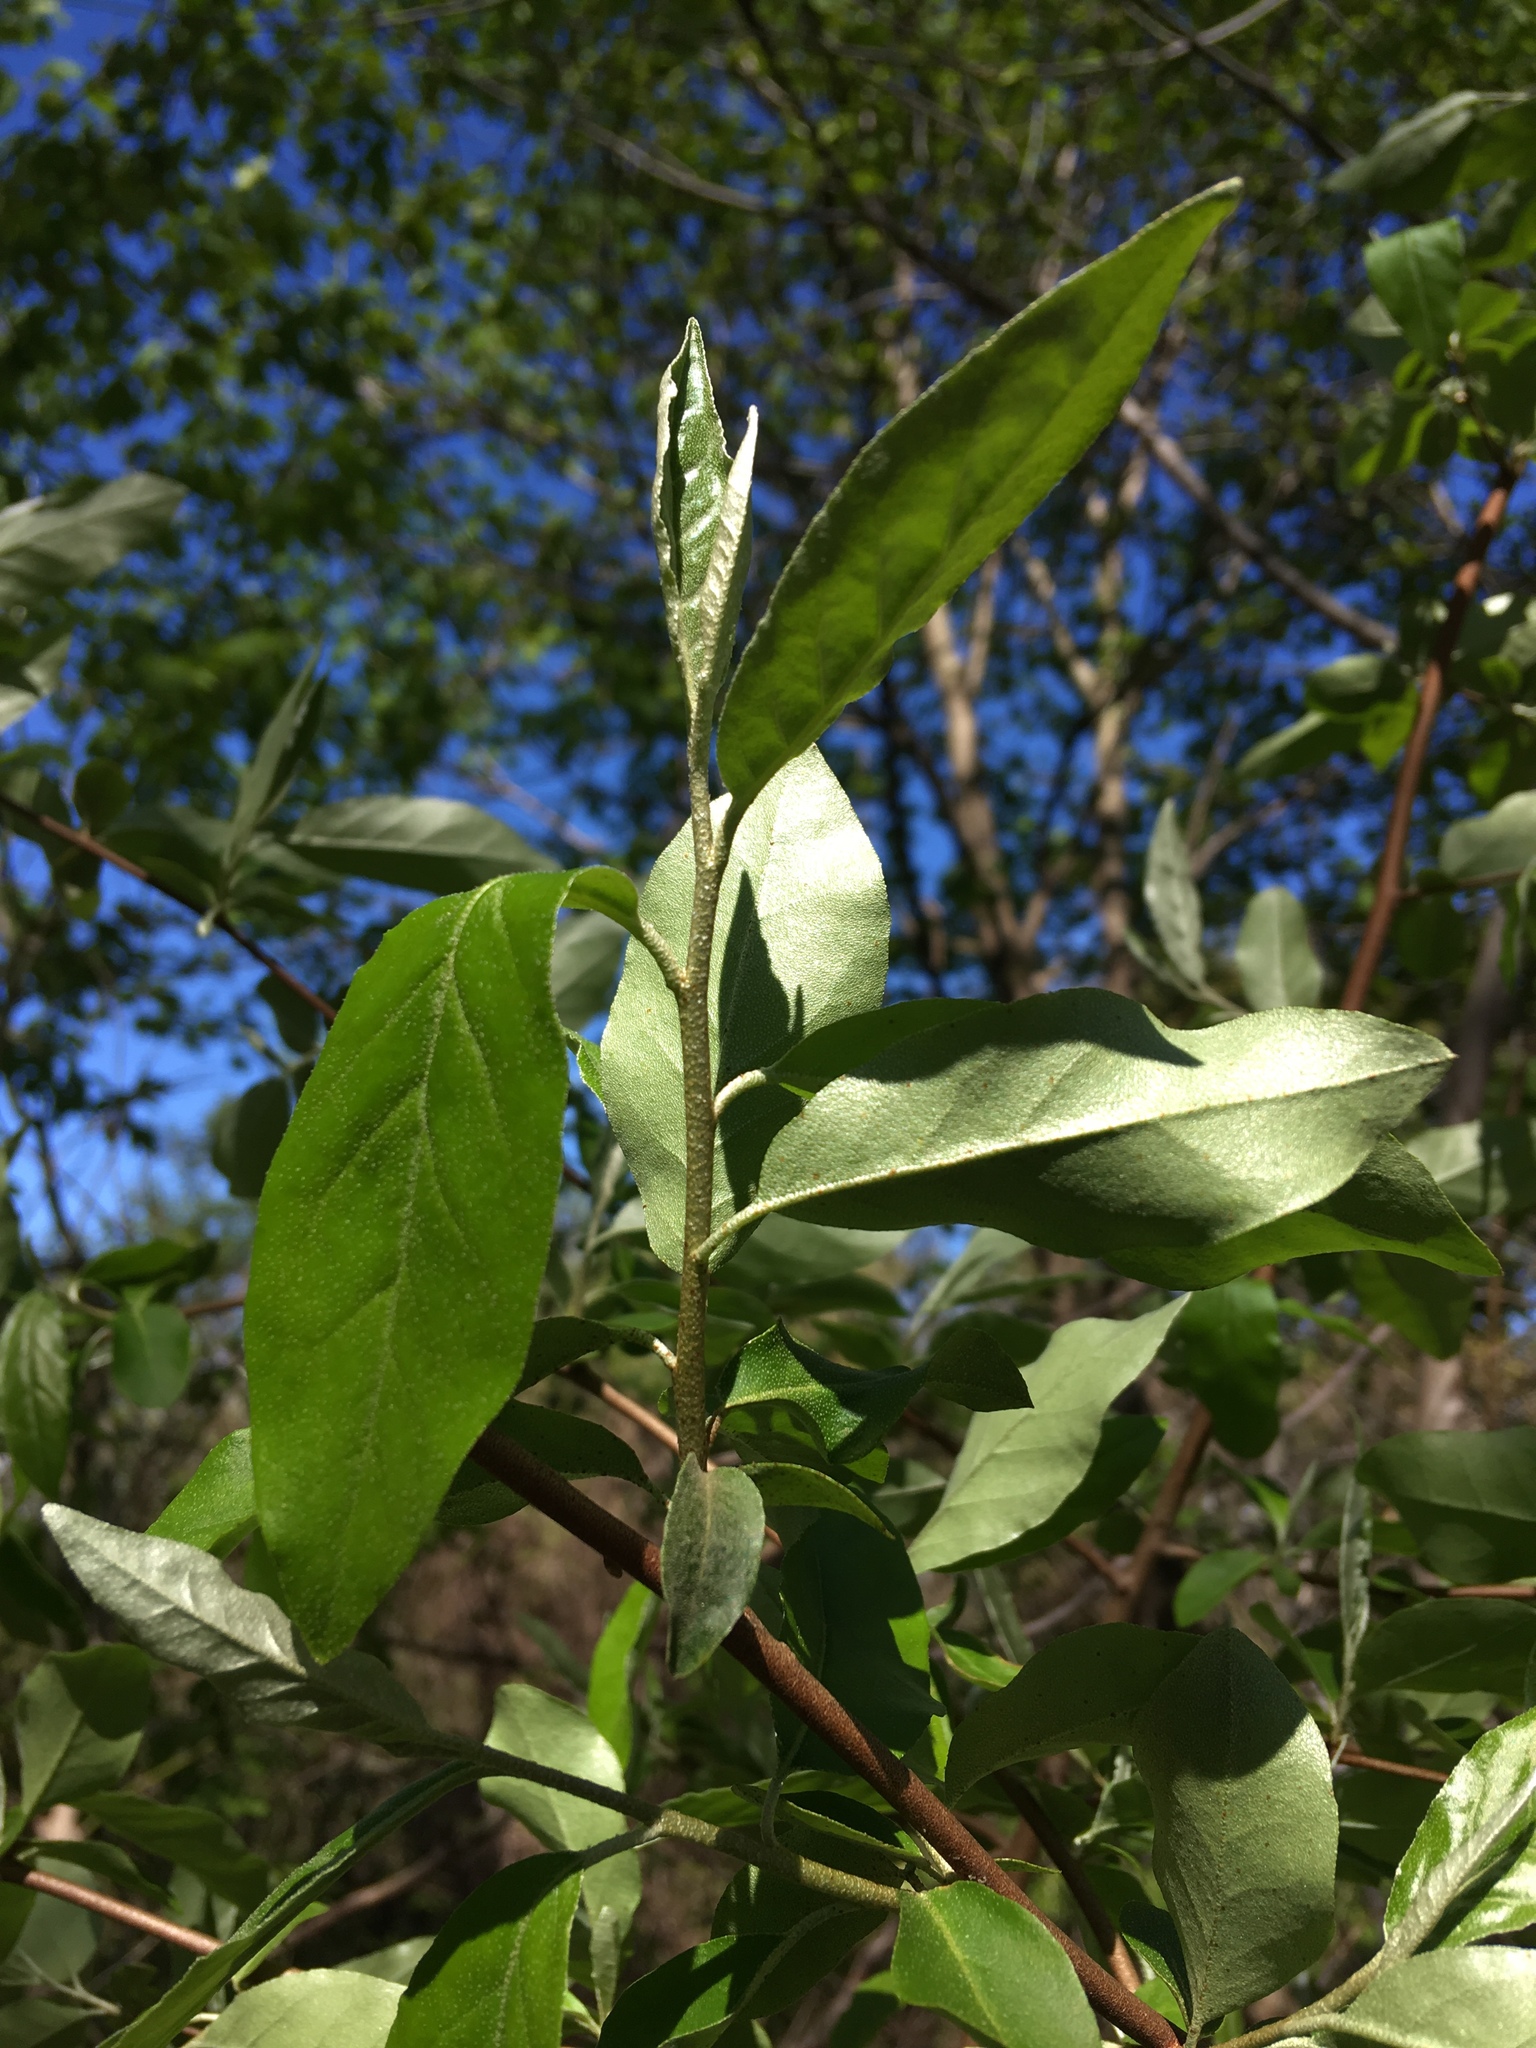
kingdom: Plantae
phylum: Tracheophyta
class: Magnoliopsida
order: Rosales
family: Elaeagnaceae
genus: Elaeagnus
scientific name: Elaeagnus umbellata
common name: Autumn olive
